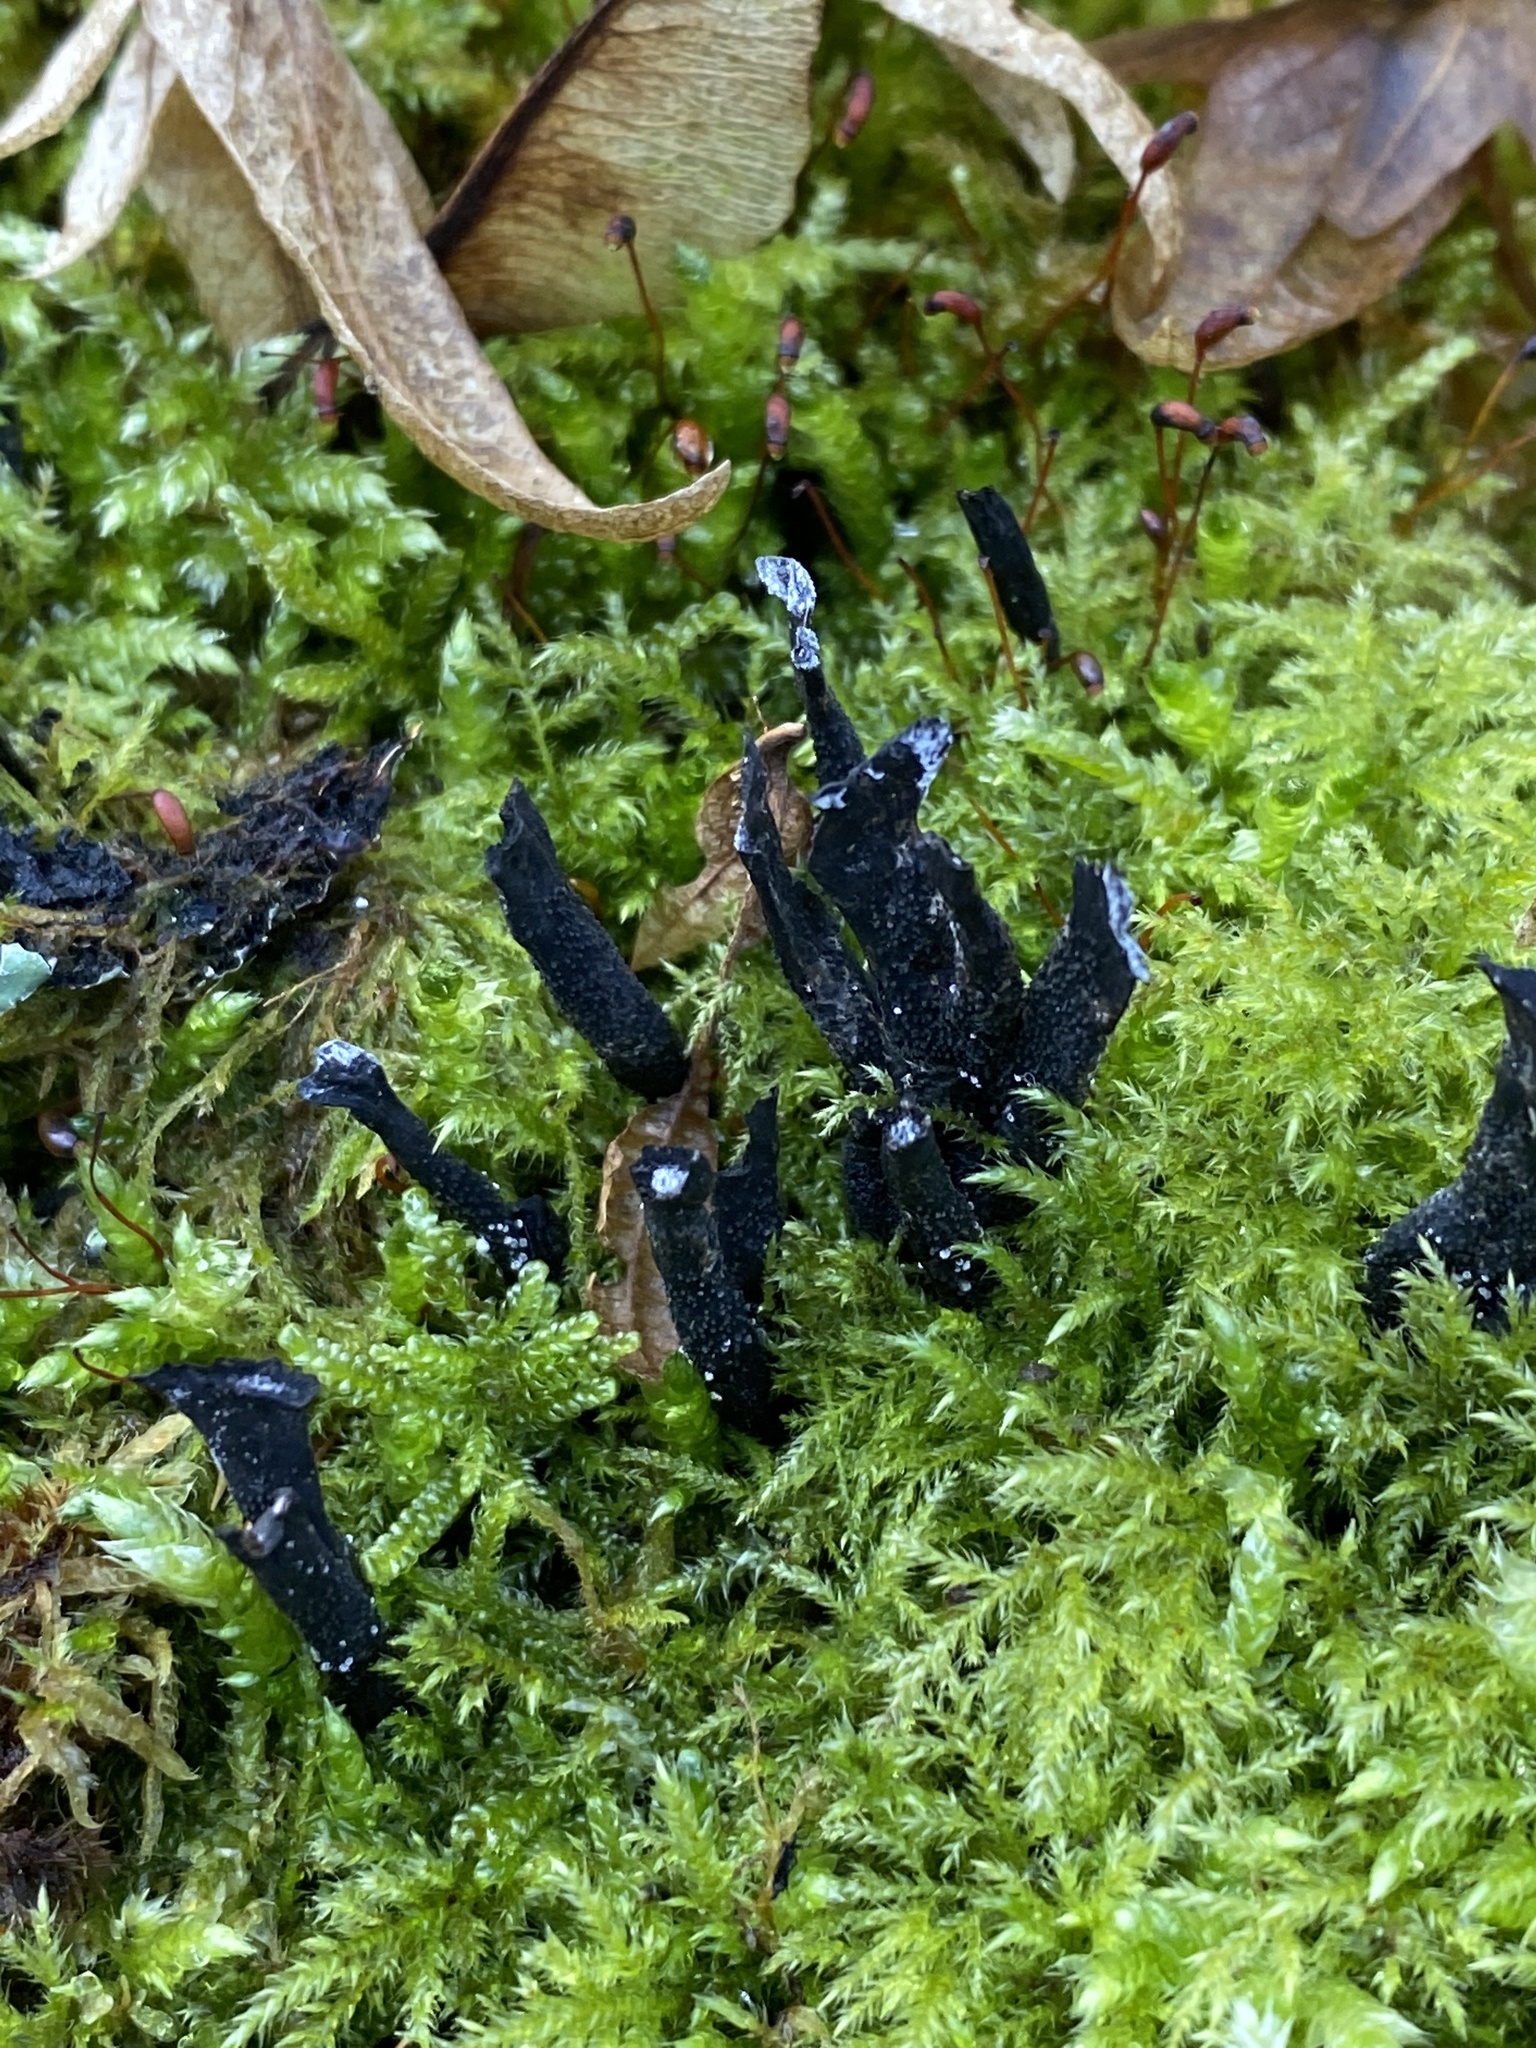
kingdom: Fungi
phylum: Ascomycota
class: Sordariomycetes
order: Xylariales
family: Xylariaceae
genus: Xylaria
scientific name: Xylaria hypoxylon
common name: Candle-snuff fungus
